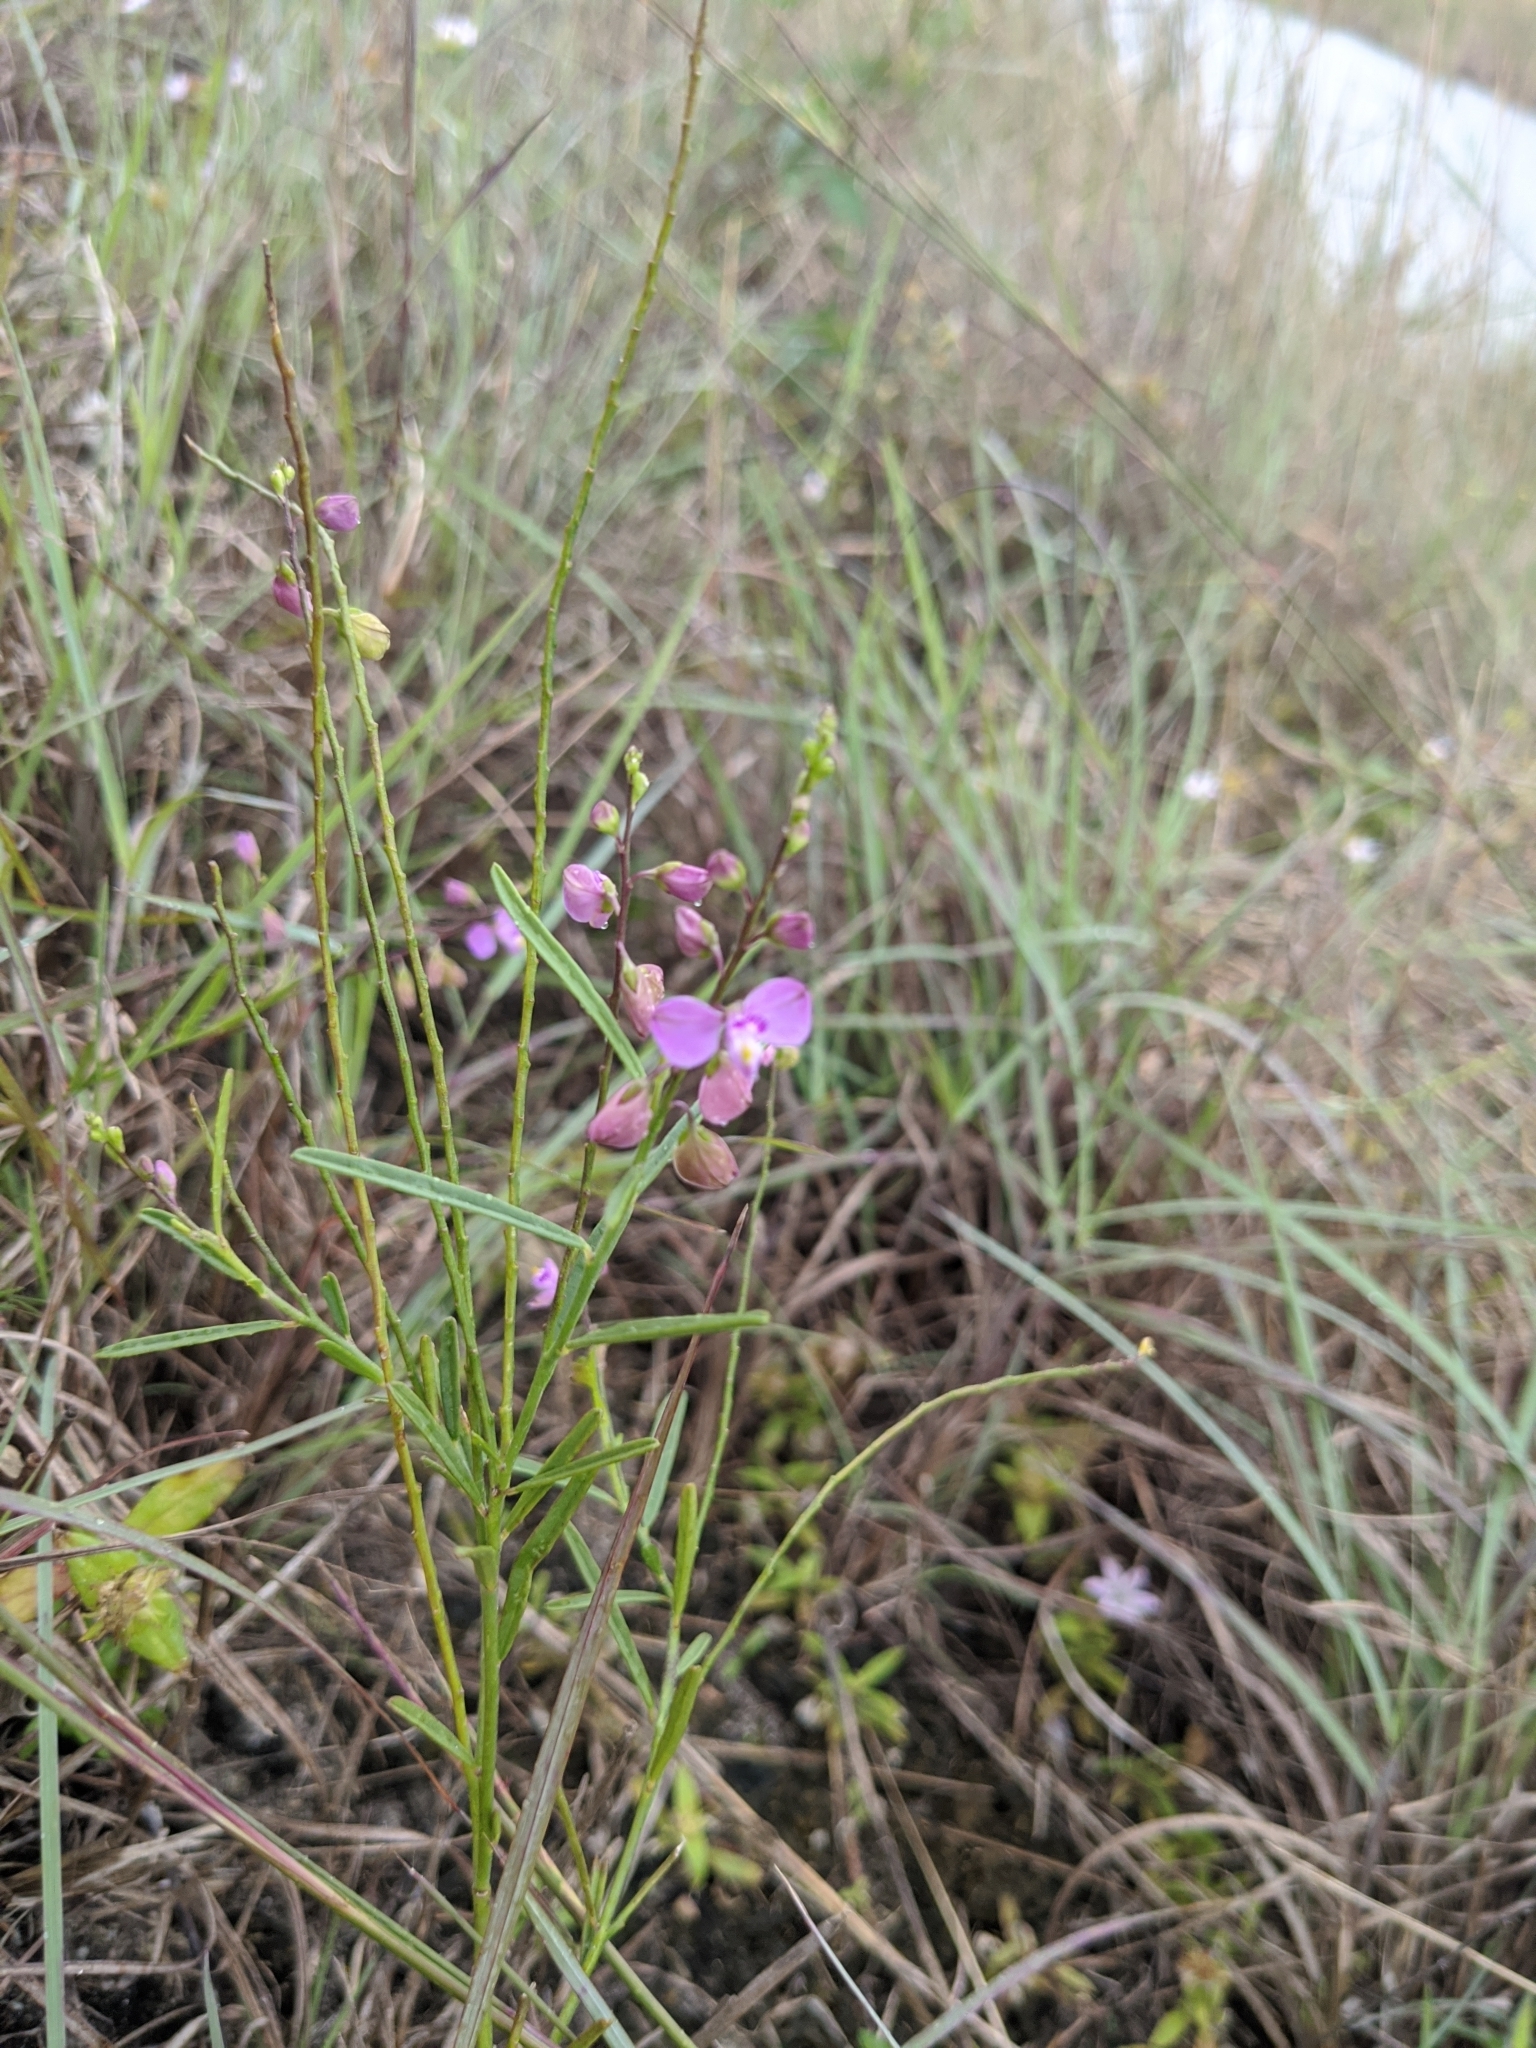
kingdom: Plantae
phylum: Tracheophyta
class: Magnoliopsida
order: Fabales
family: Polygalaceae
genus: Asemeia
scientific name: Asemeia grandiflora
